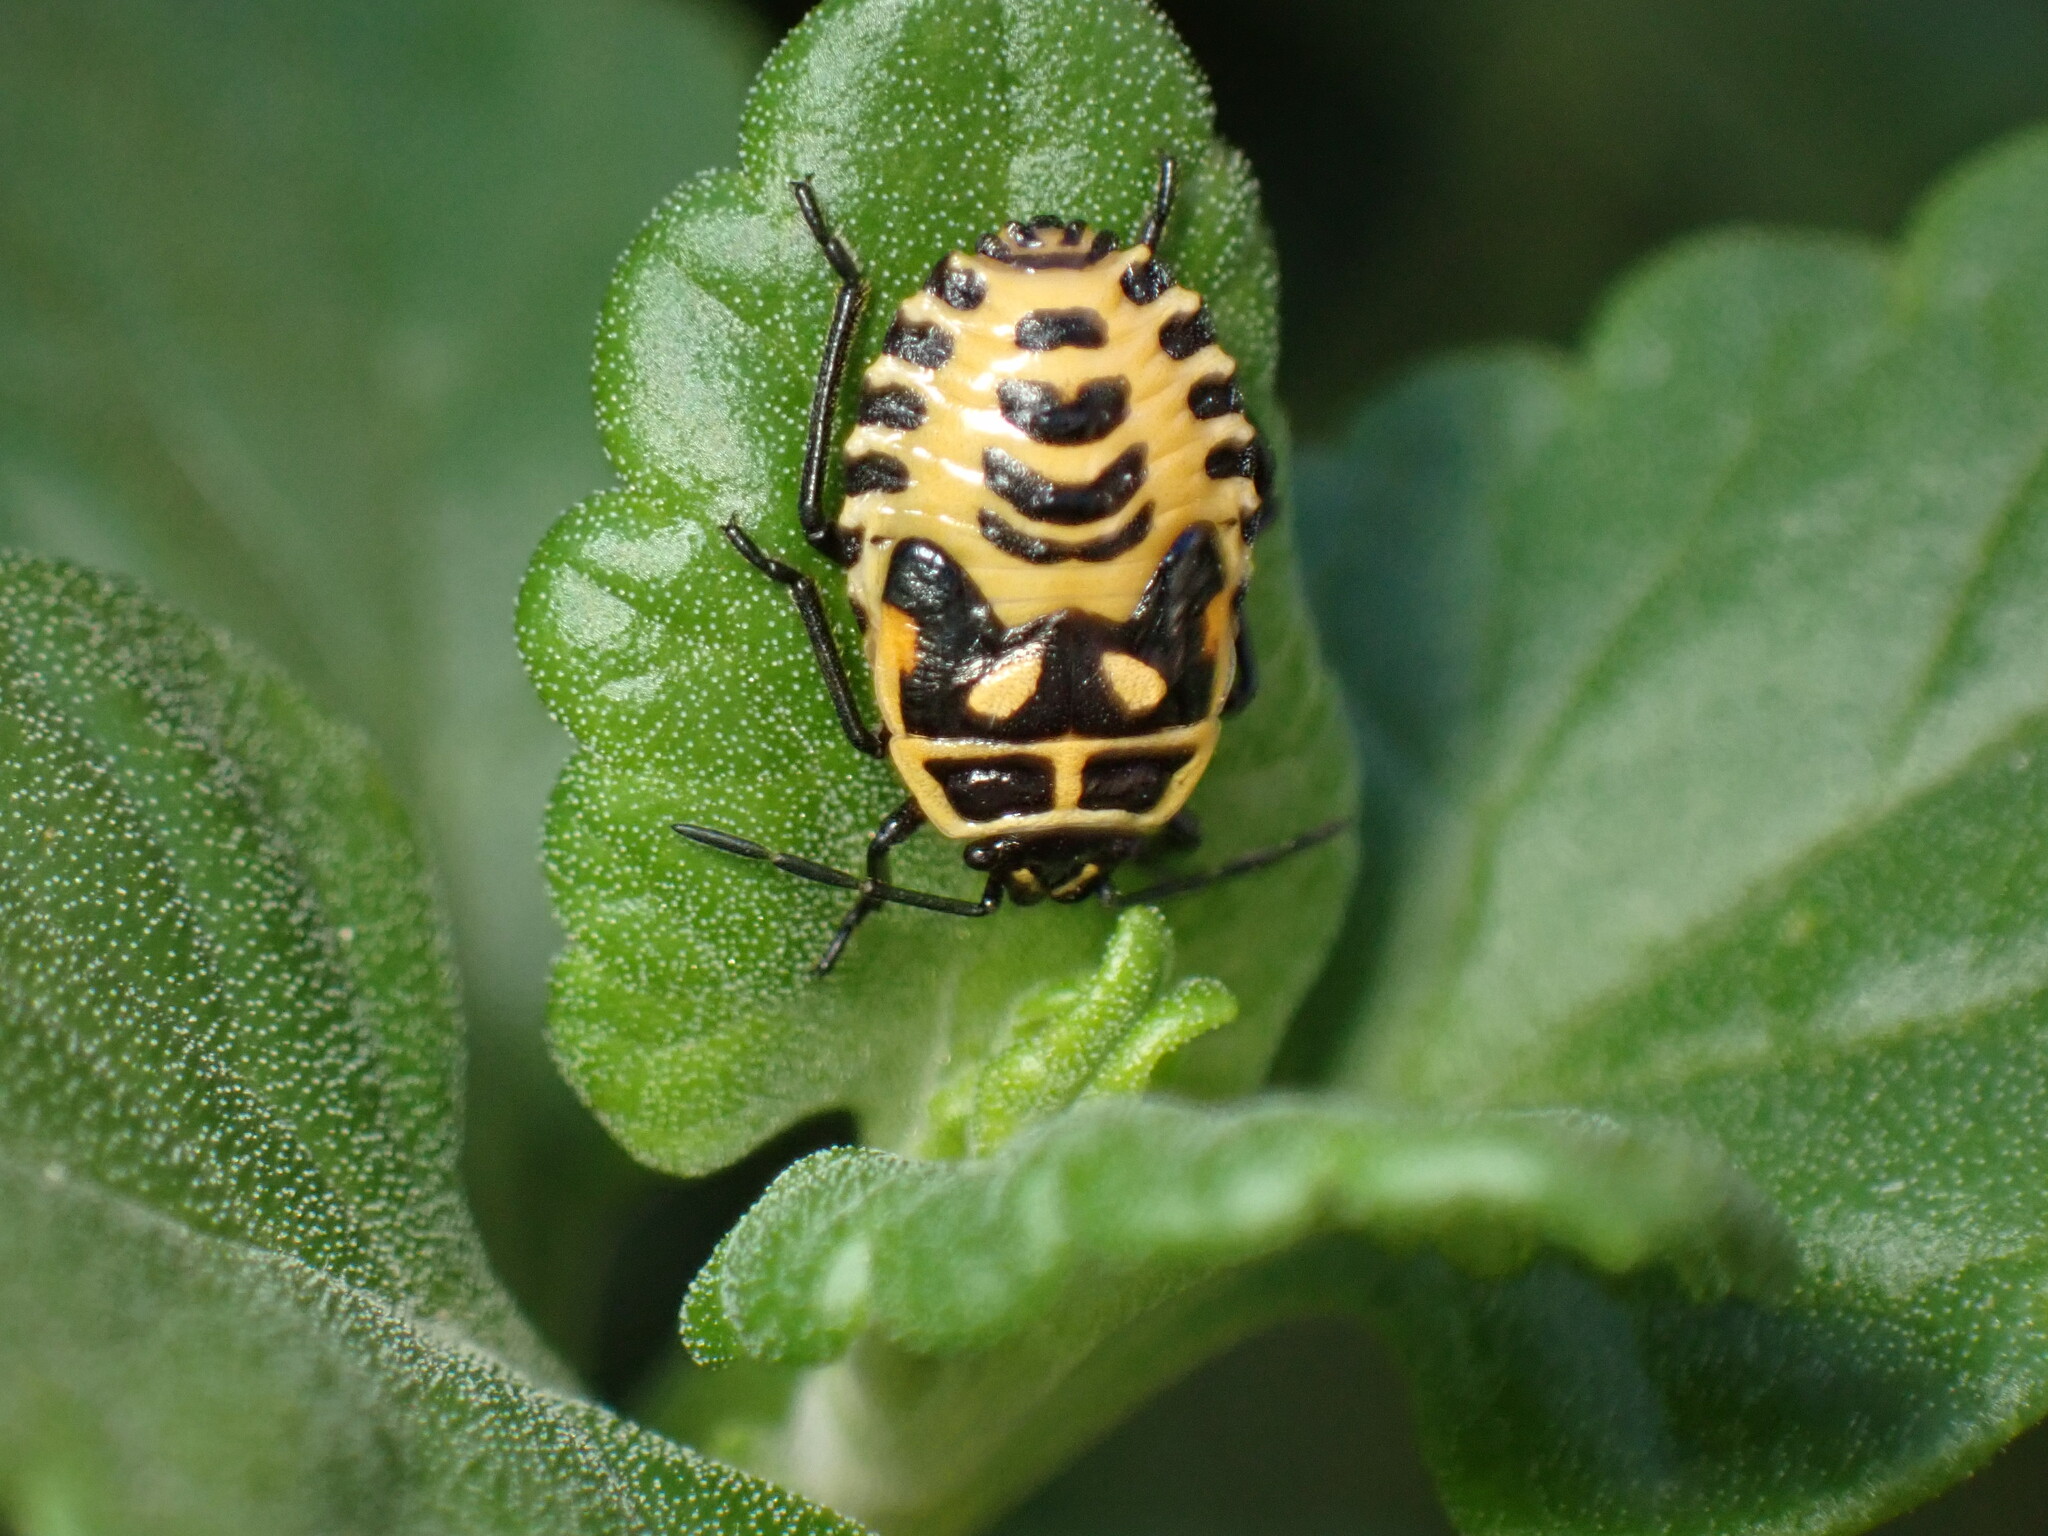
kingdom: Animalia
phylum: Arthropoda
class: Insecta
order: Hemiptera
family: Pentatomidae
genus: Eurydema
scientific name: Eurydema ventralis
